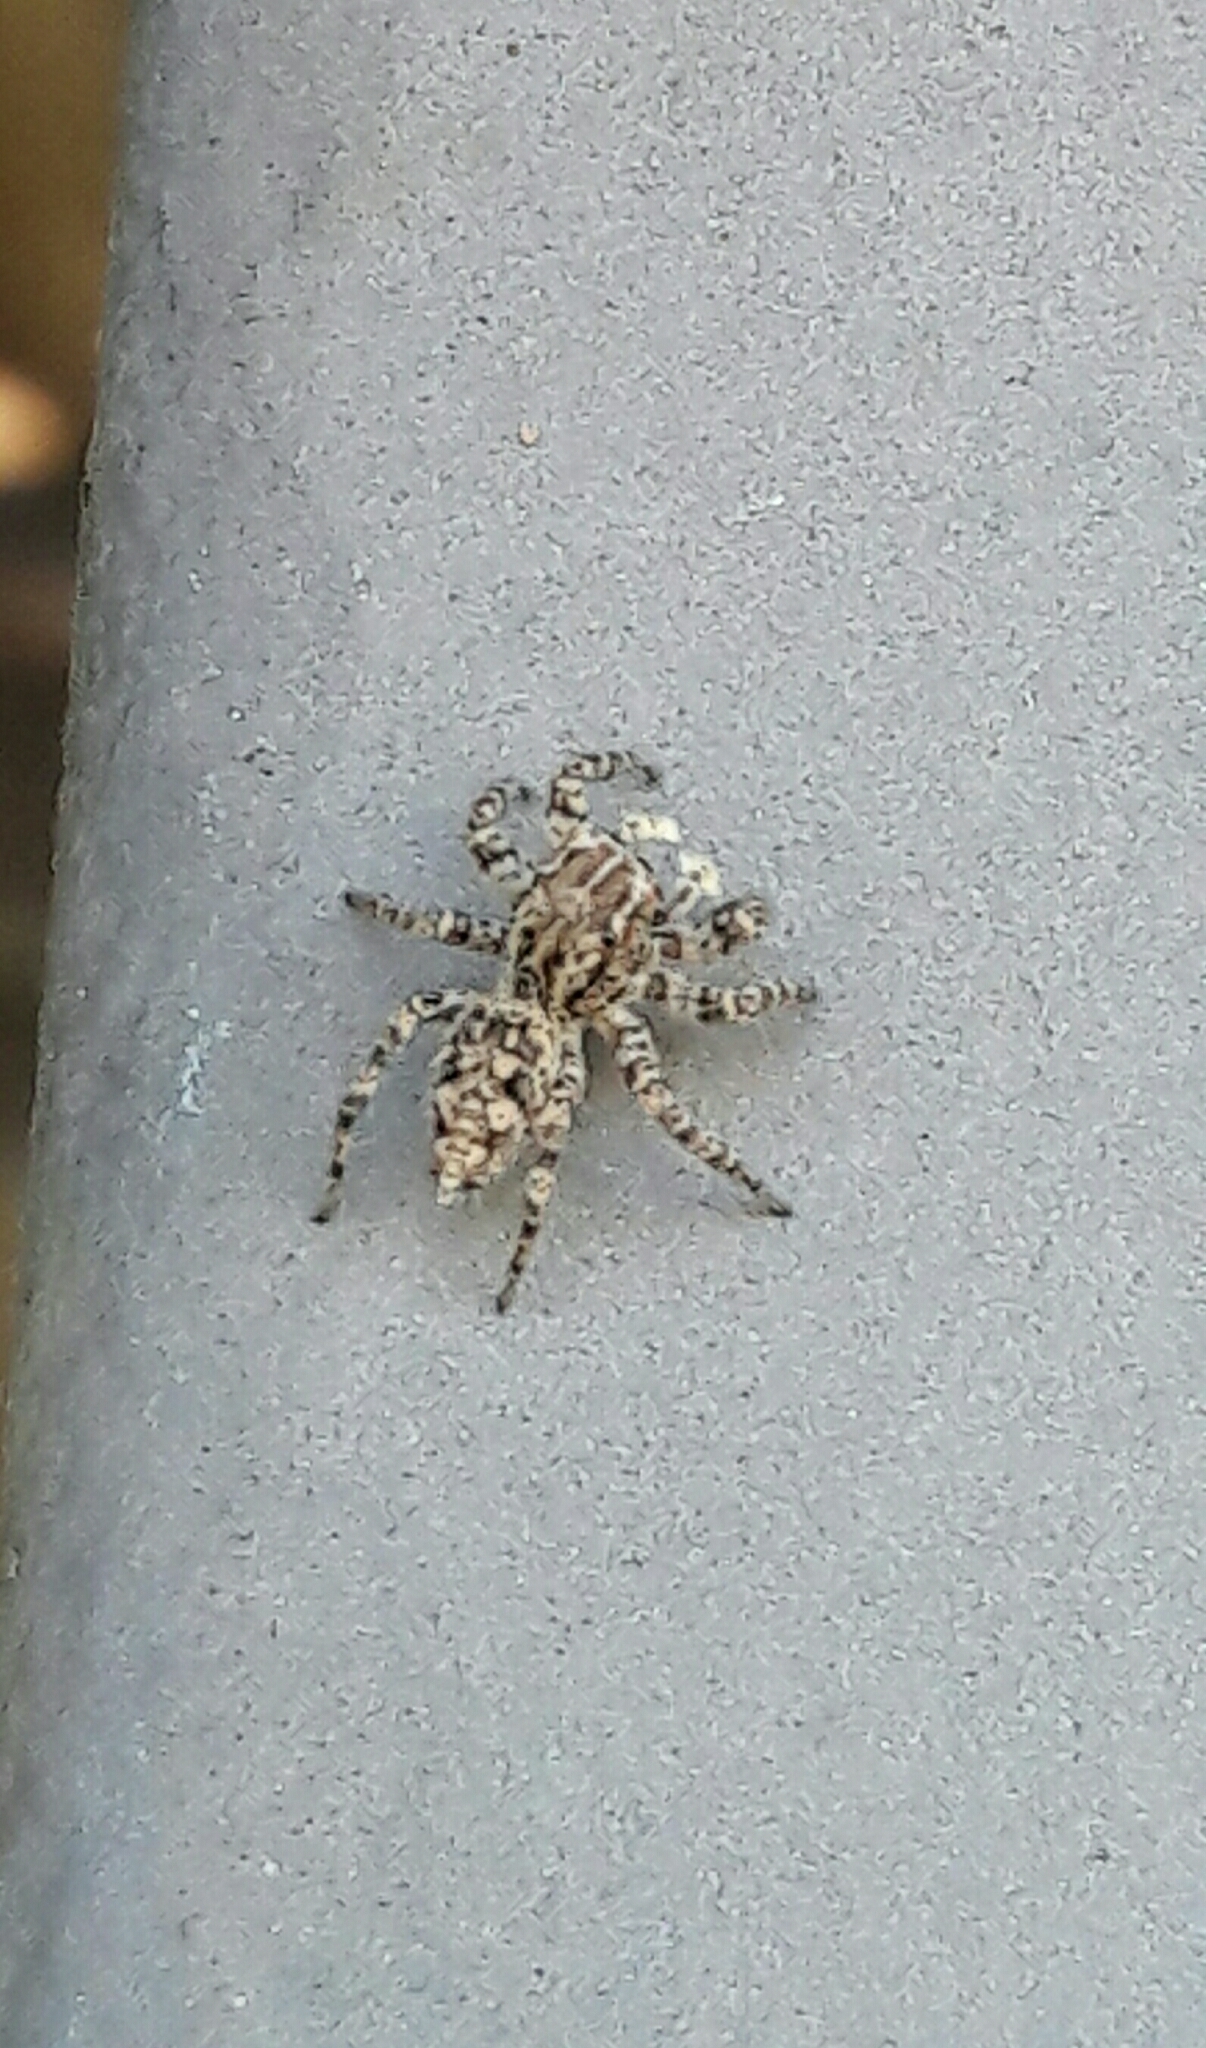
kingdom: Animalia
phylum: Arthropoda
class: Arachnida
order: Araneae
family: Salticidae
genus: Sumampattus
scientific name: Sumampattus quinqueradiatus
